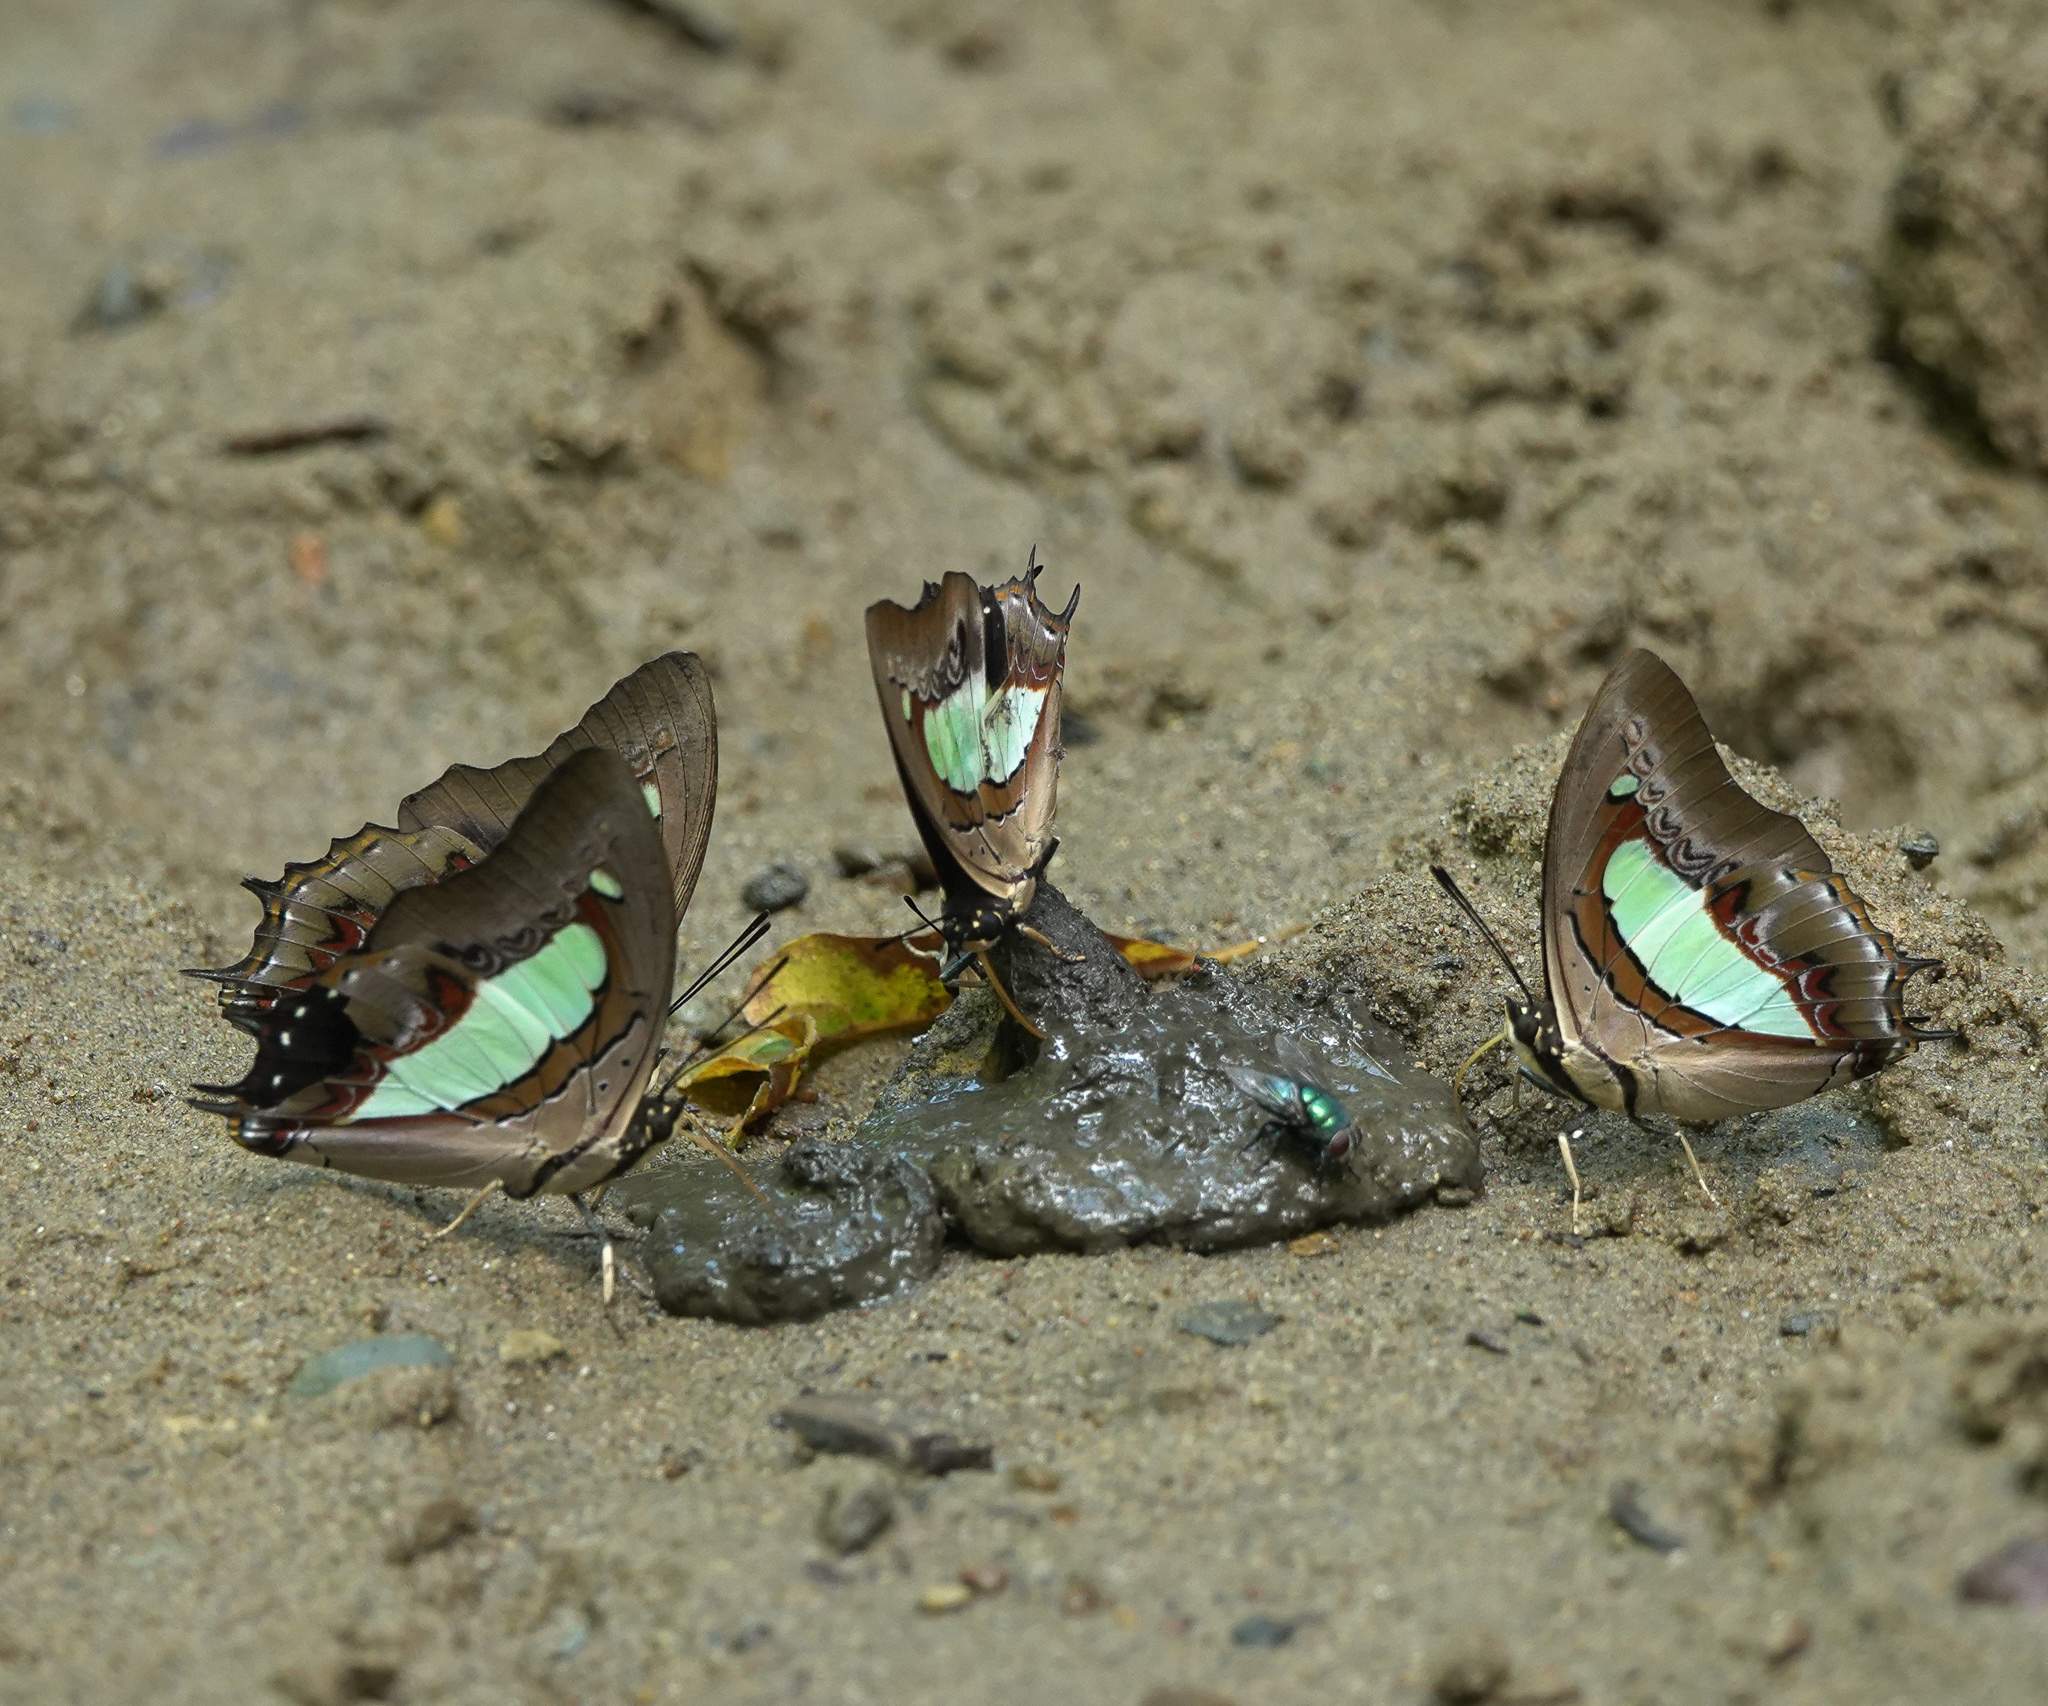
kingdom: Animalia
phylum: Arthropoda
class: Insecta
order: Lepidoptera
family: Nymphalidae
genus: Polyura
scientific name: Polyura
